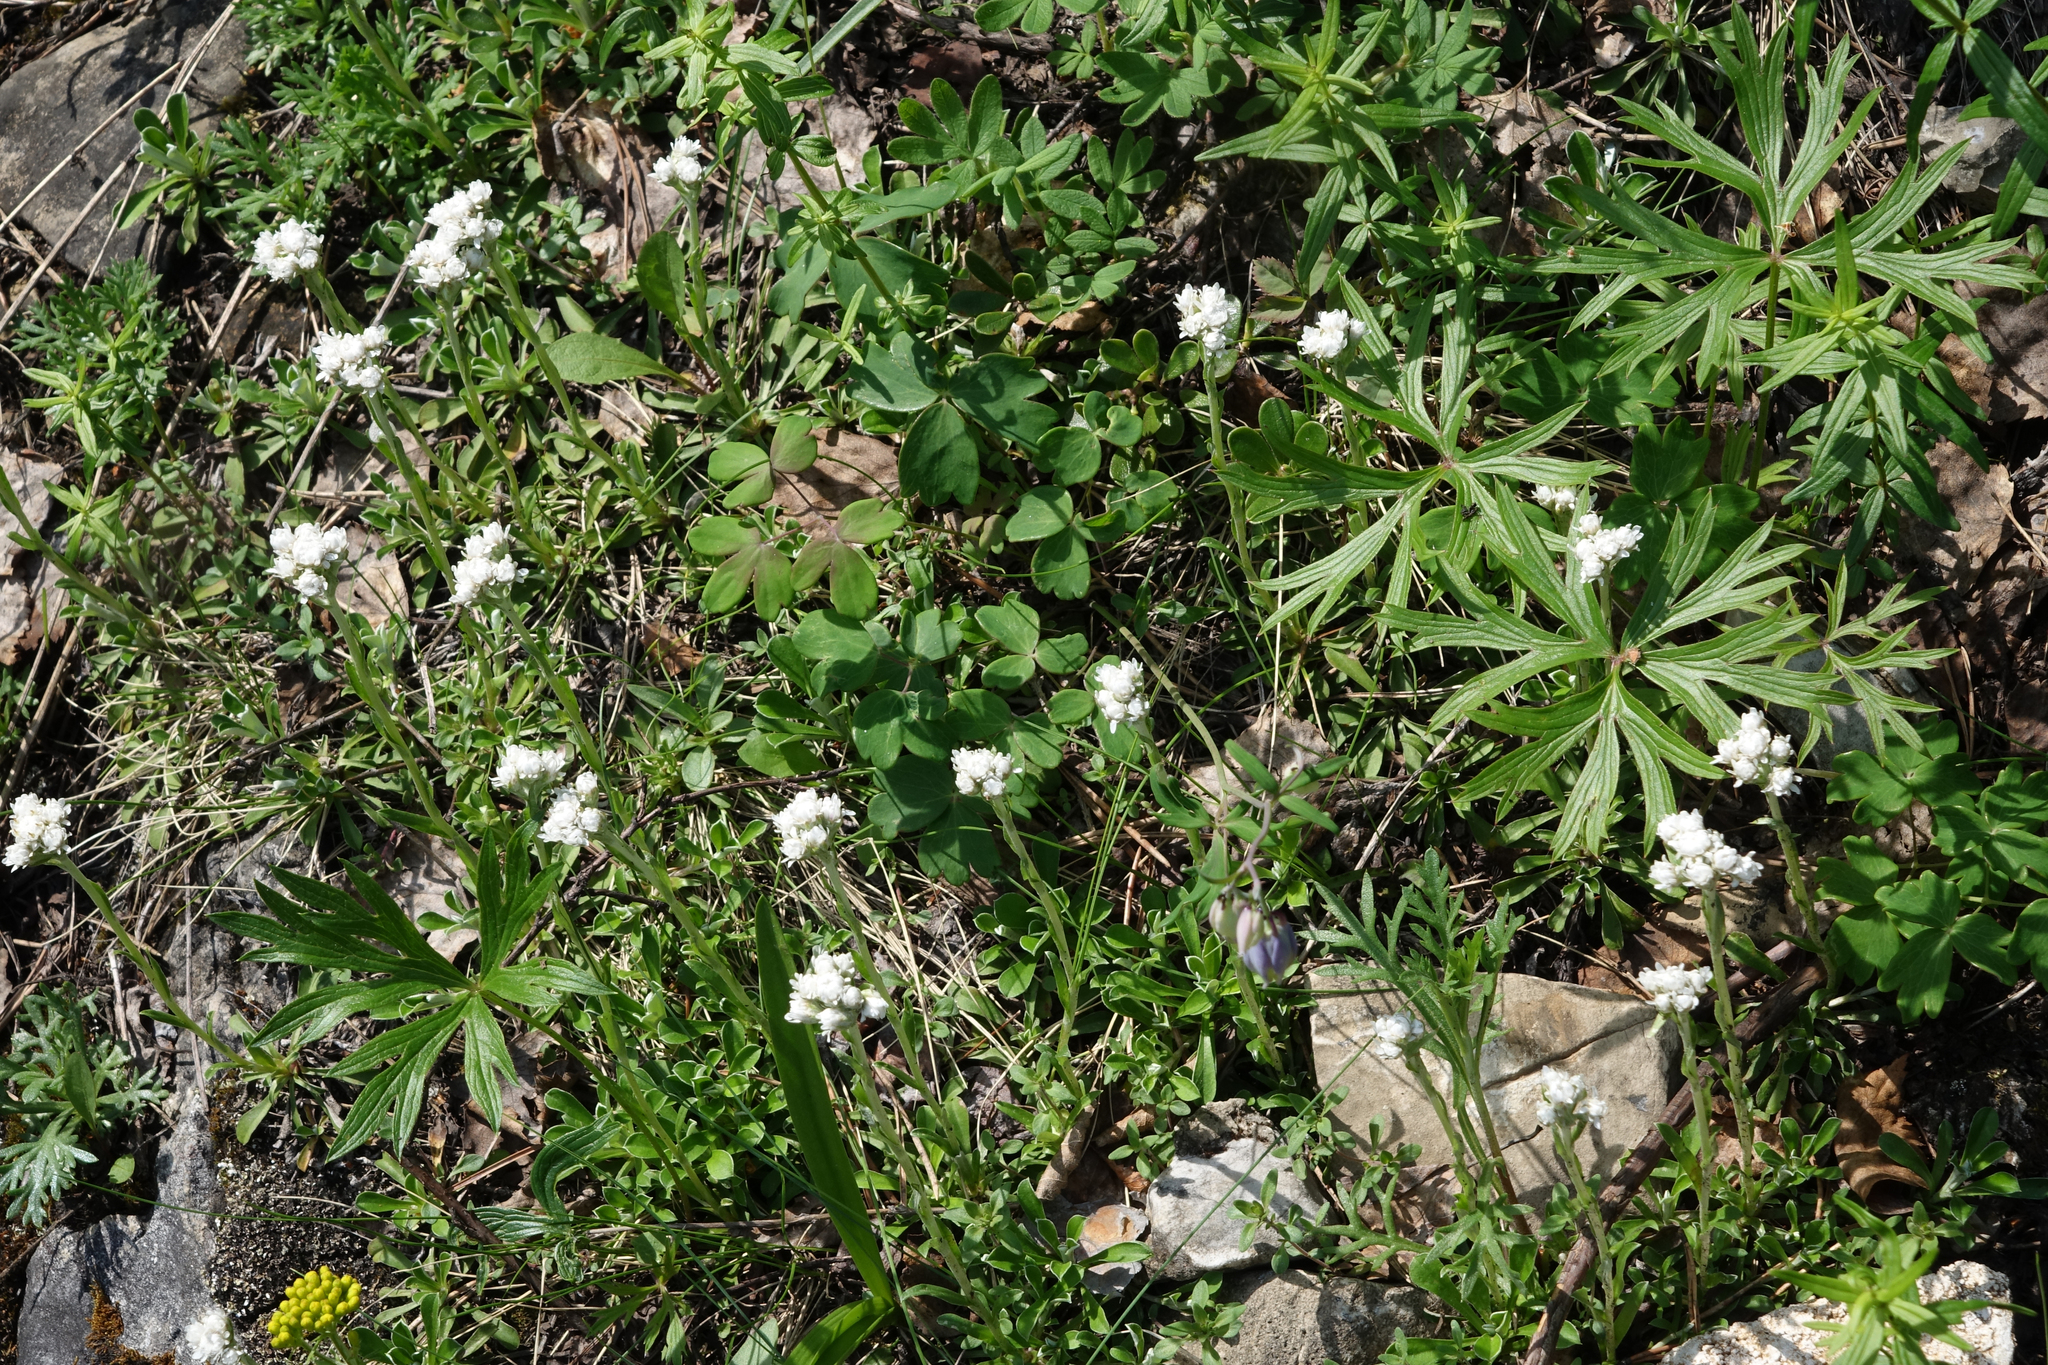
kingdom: Plantae
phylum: Tracheophyta
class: Magnoliopsida
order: Asterales
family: Asteraceae
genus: Antennaria
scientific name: Antennaria dioica
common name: Mountain everlasting
